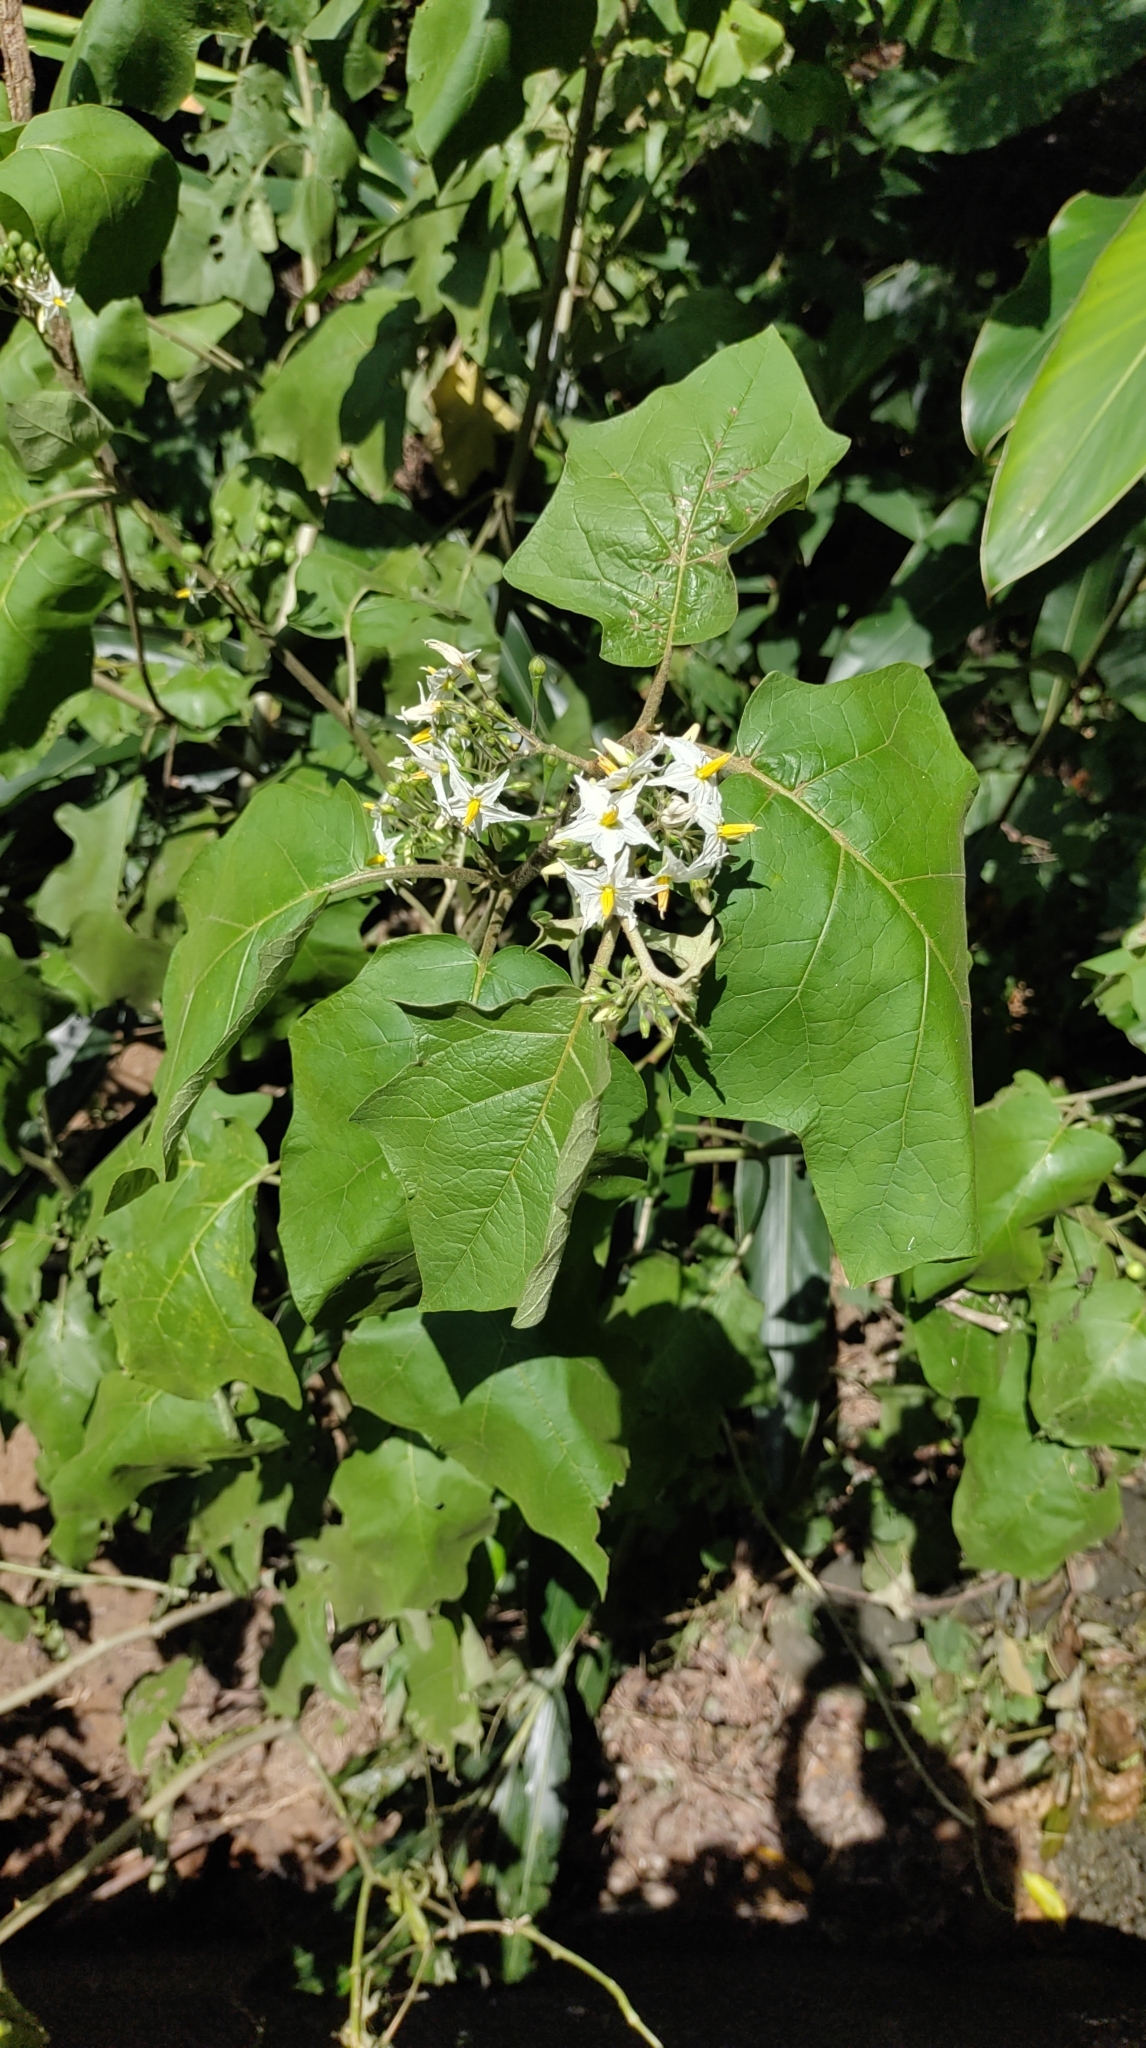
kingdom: Plantae
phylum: Tracheophyta
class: Magnoliopsida
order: Solanales
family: Solanaceae
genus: Solanum
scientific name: Solanum torvum
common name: Turkey berry
